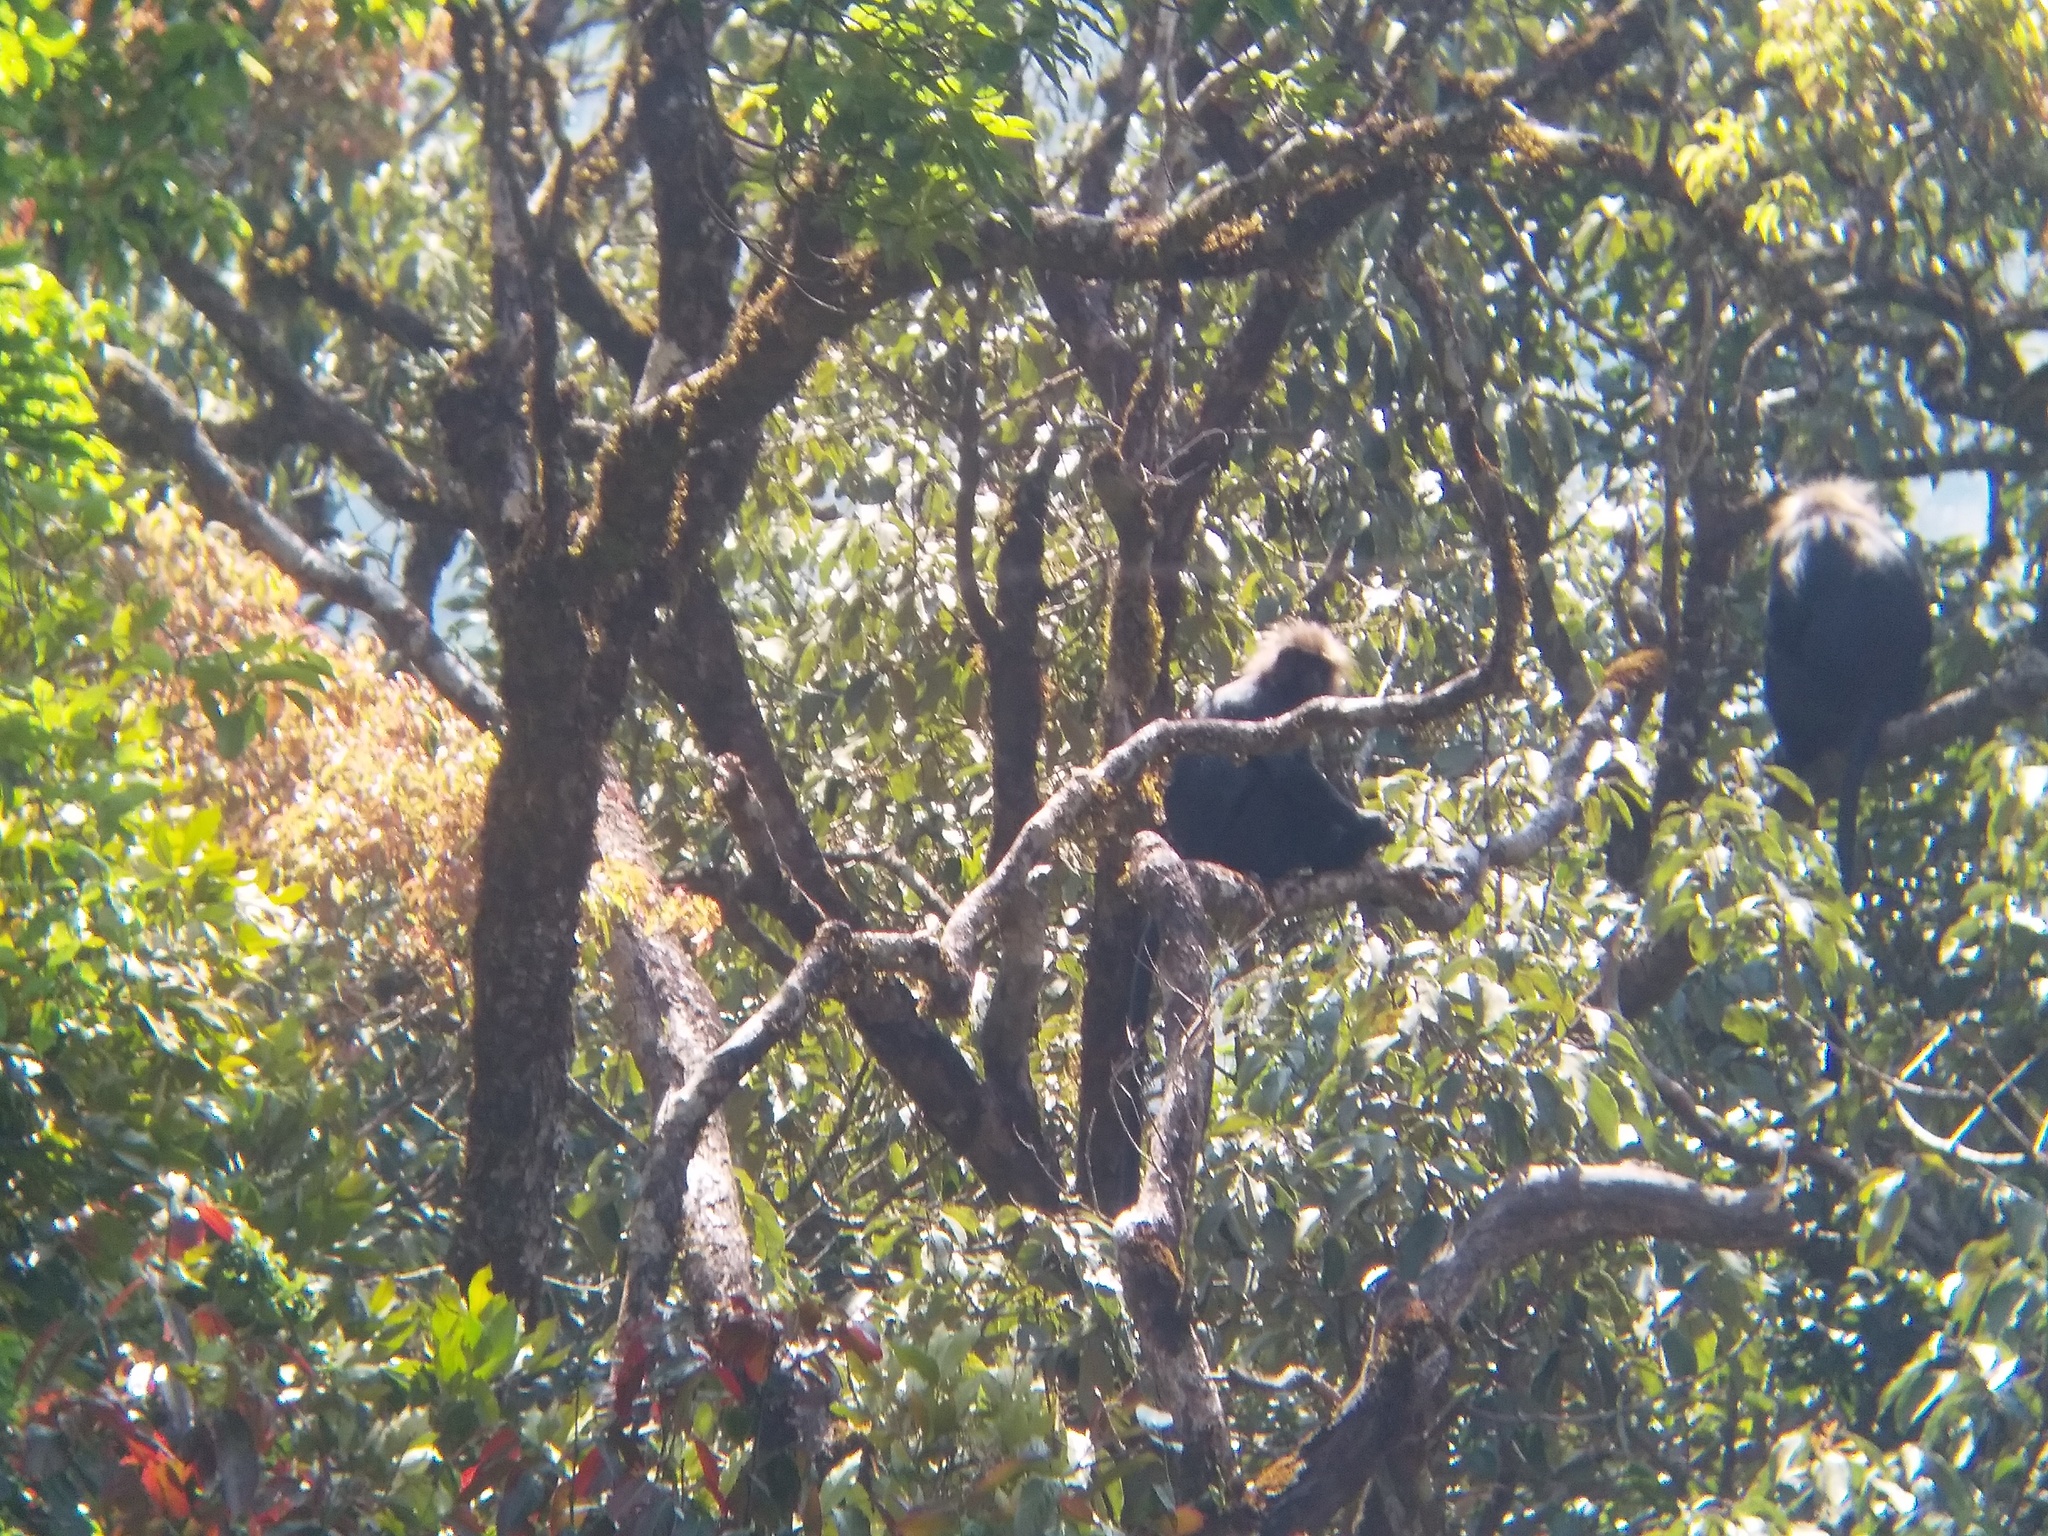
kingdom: Animalia
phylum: Chordata
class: Mammalia
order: Primates
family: Cercopithecidae
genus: Semnopithecus
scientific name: Semnopithecus johnii
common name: Nilgiri langur
